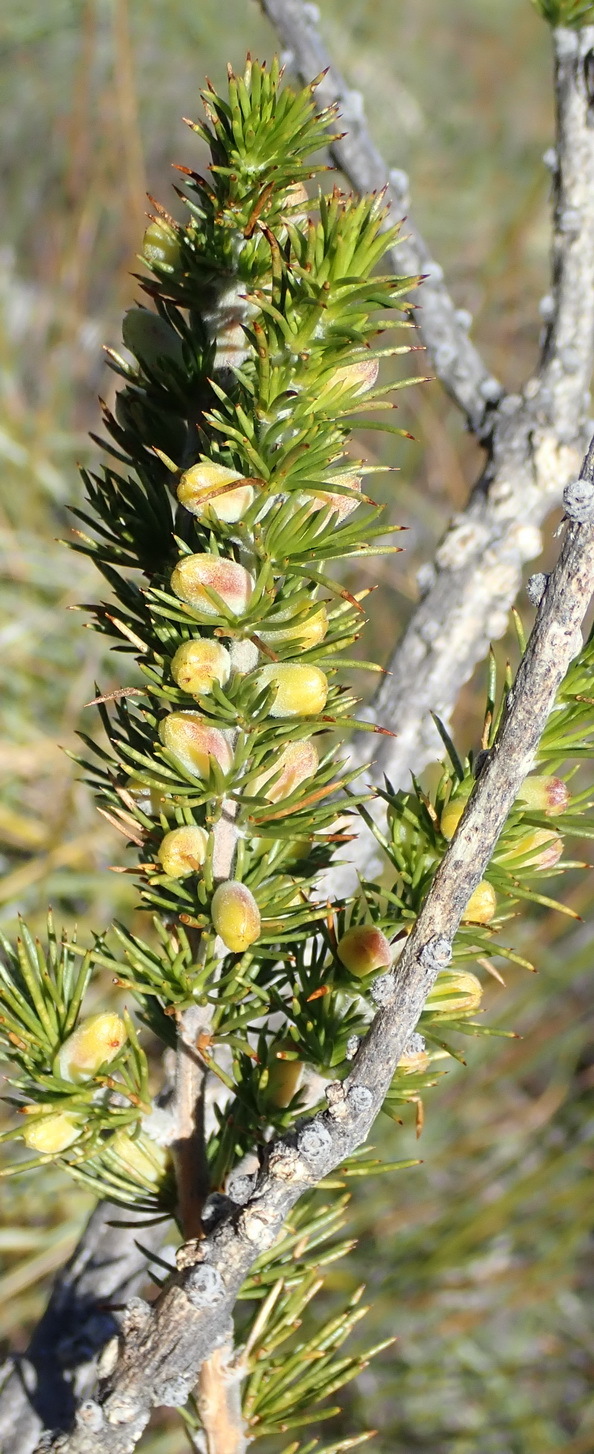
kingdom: Plantae
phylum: Tracheophyta
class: Magnoliopsida
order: Fabales
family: Fabaceae
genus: Aspalathus
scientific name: Aspalathus sceptrumaureum
